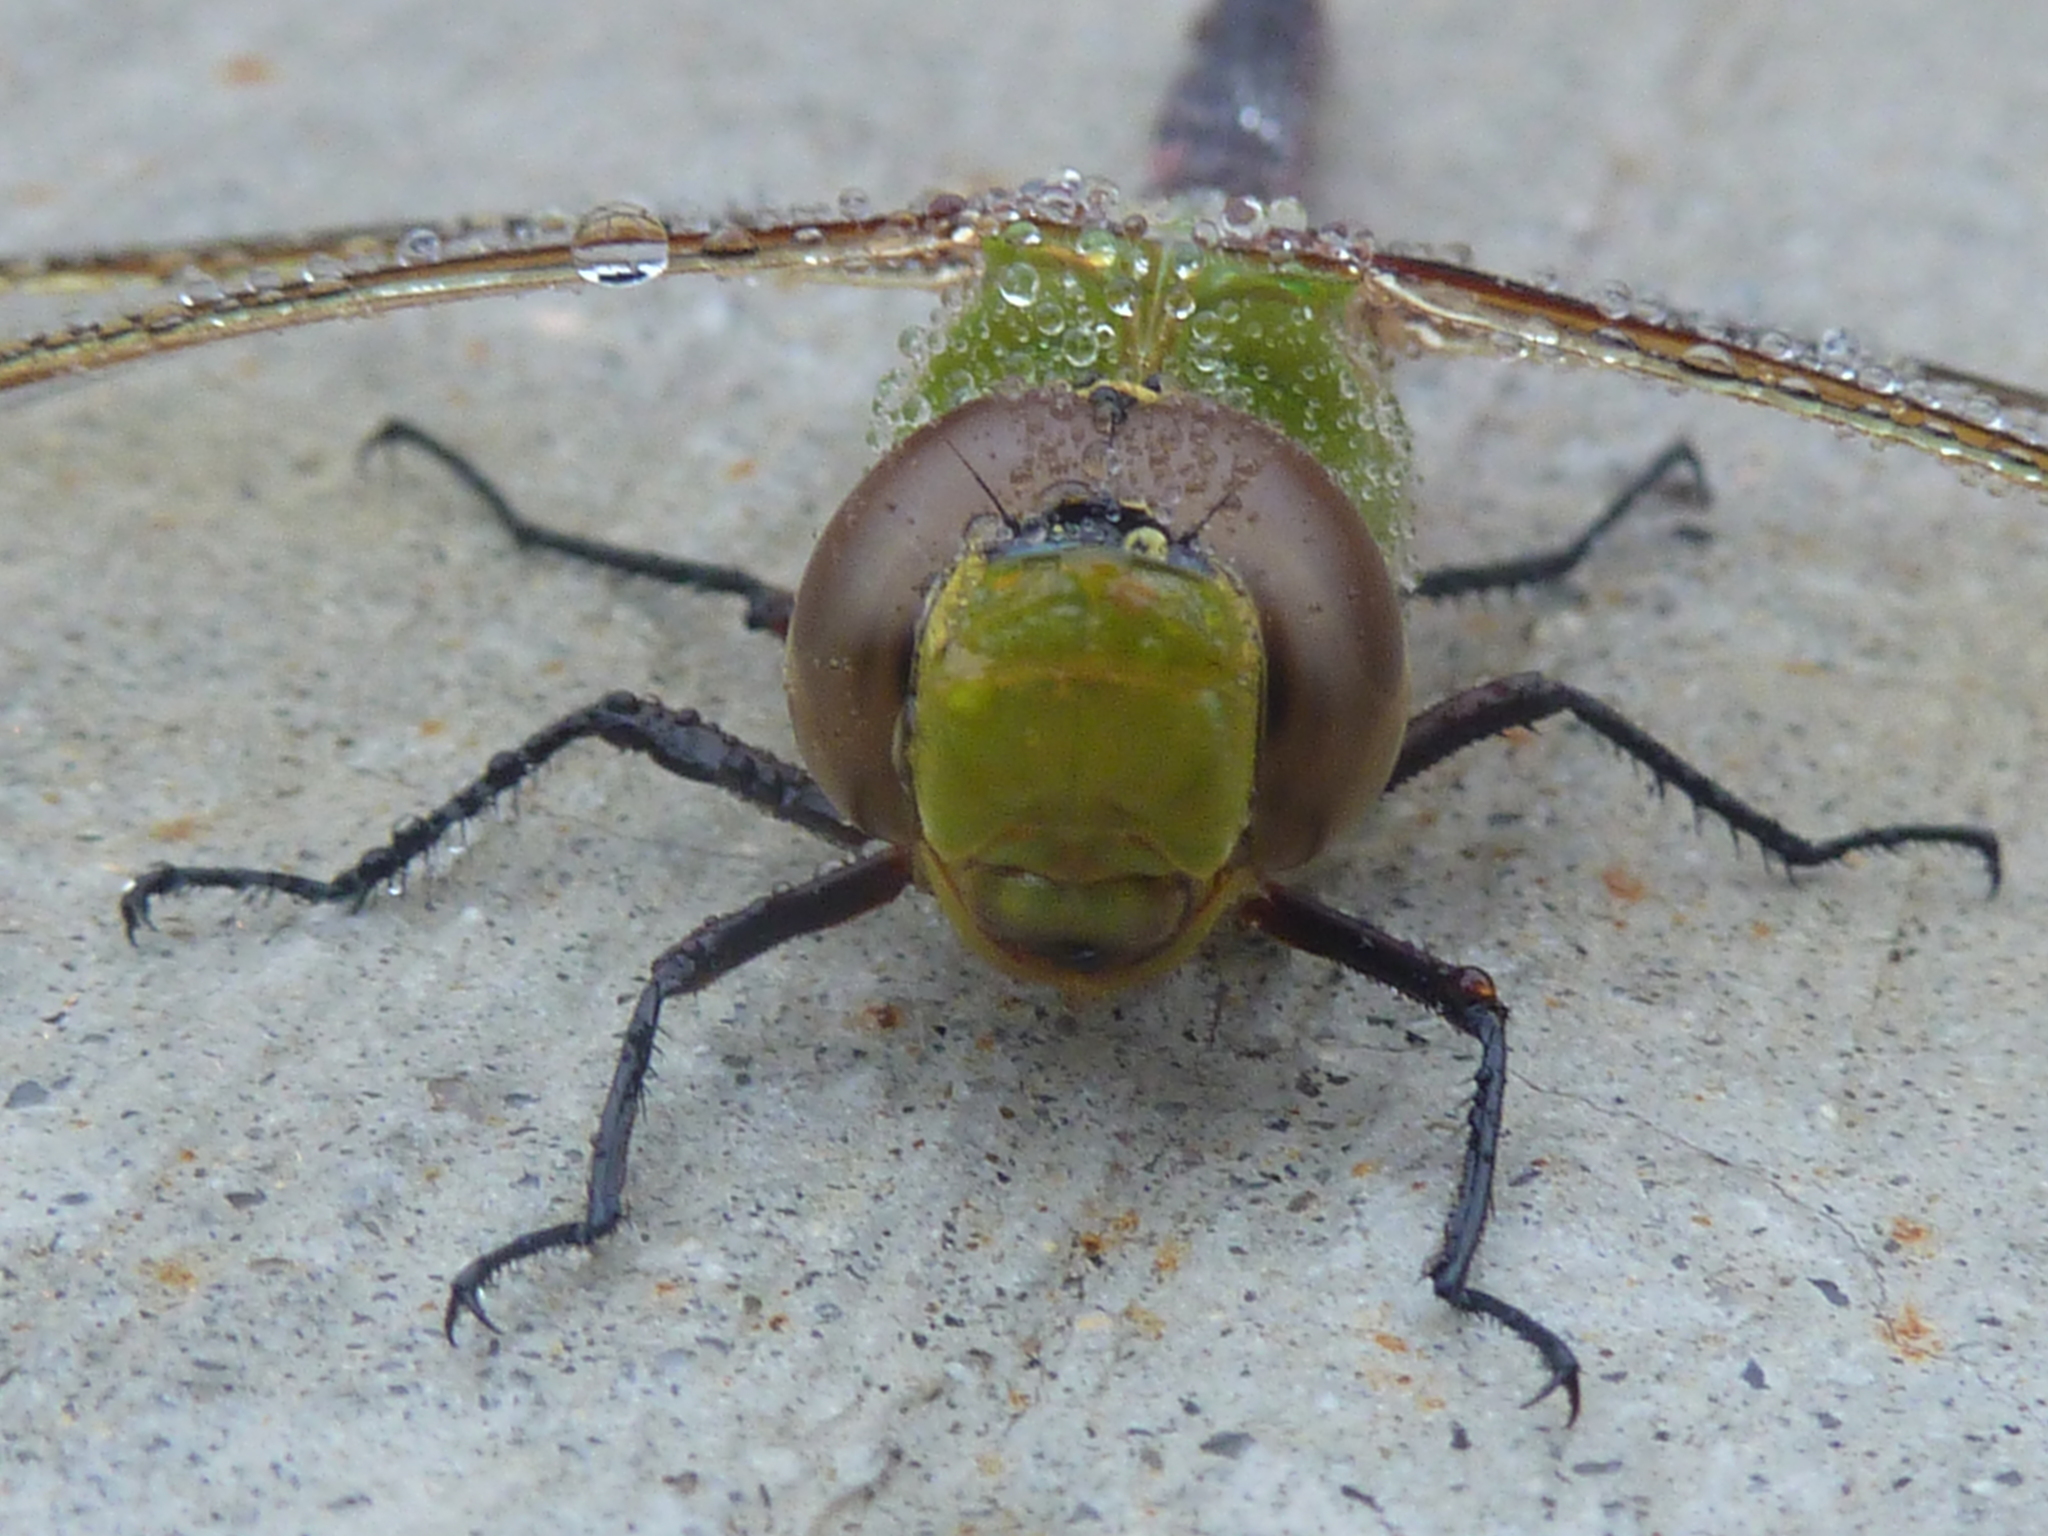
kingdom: Animalia
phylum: Arthropoda
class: Insecta
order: Odonata
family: Aeshnidae
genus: Anax
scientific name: Anax junius
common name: Common green darner
